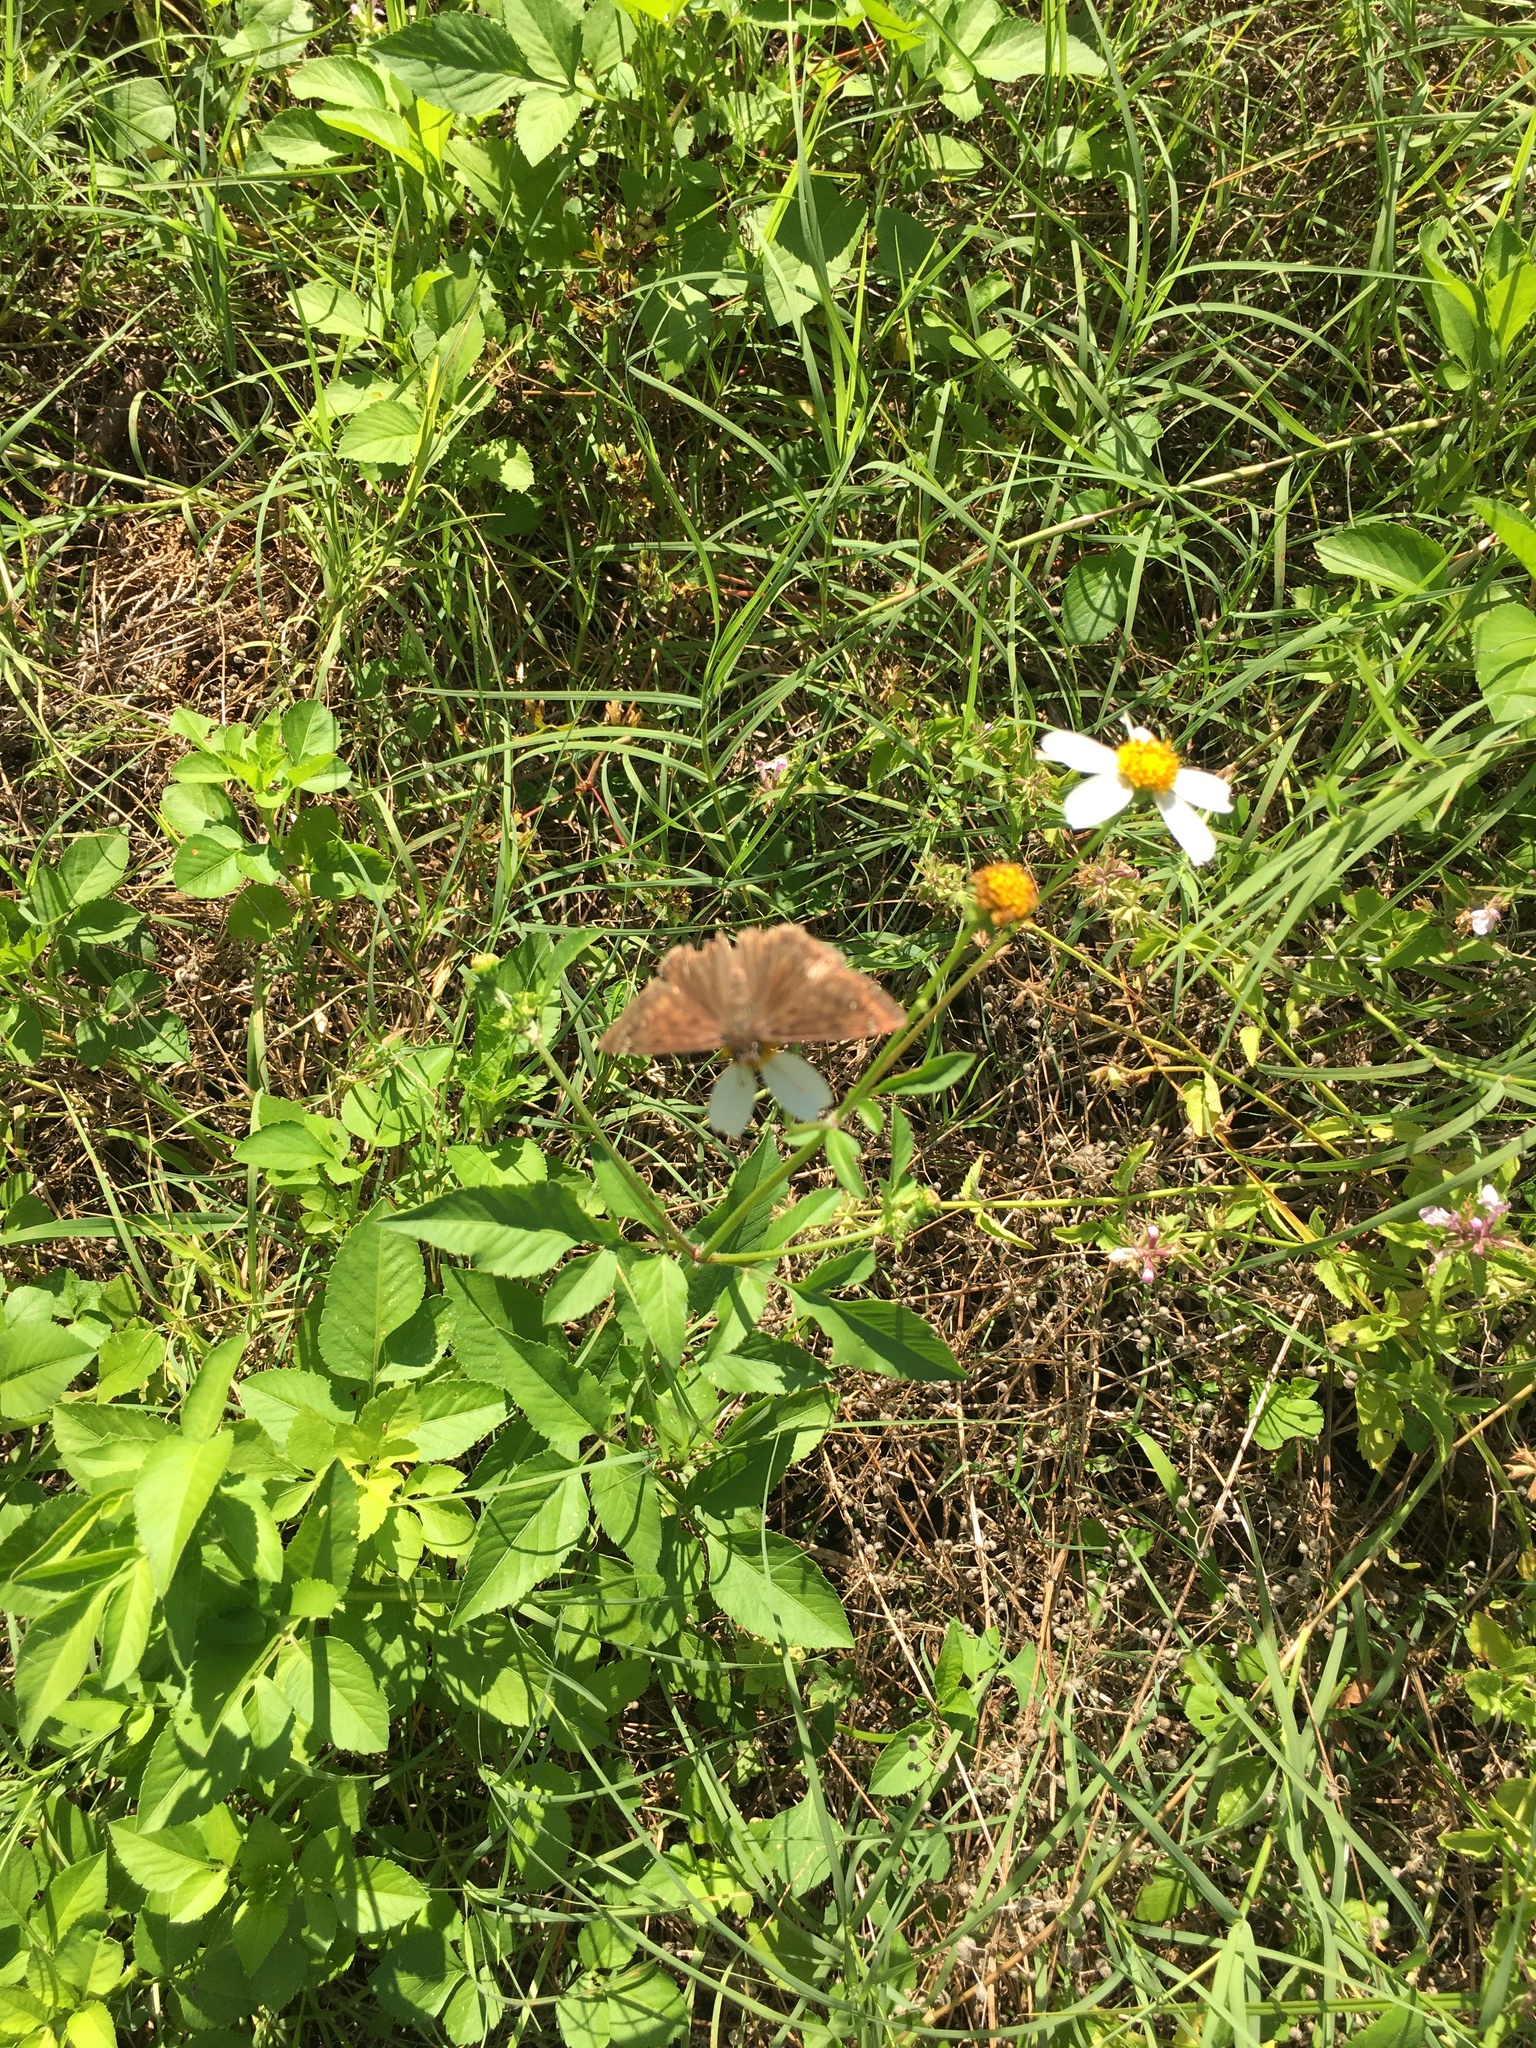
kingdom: Animalia
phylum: Arthropoda
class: Insecta
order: Lepidoptera
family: Hesperiidae
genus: Erynnis
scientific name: Erynnis horatius
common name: Horace's duskywing
